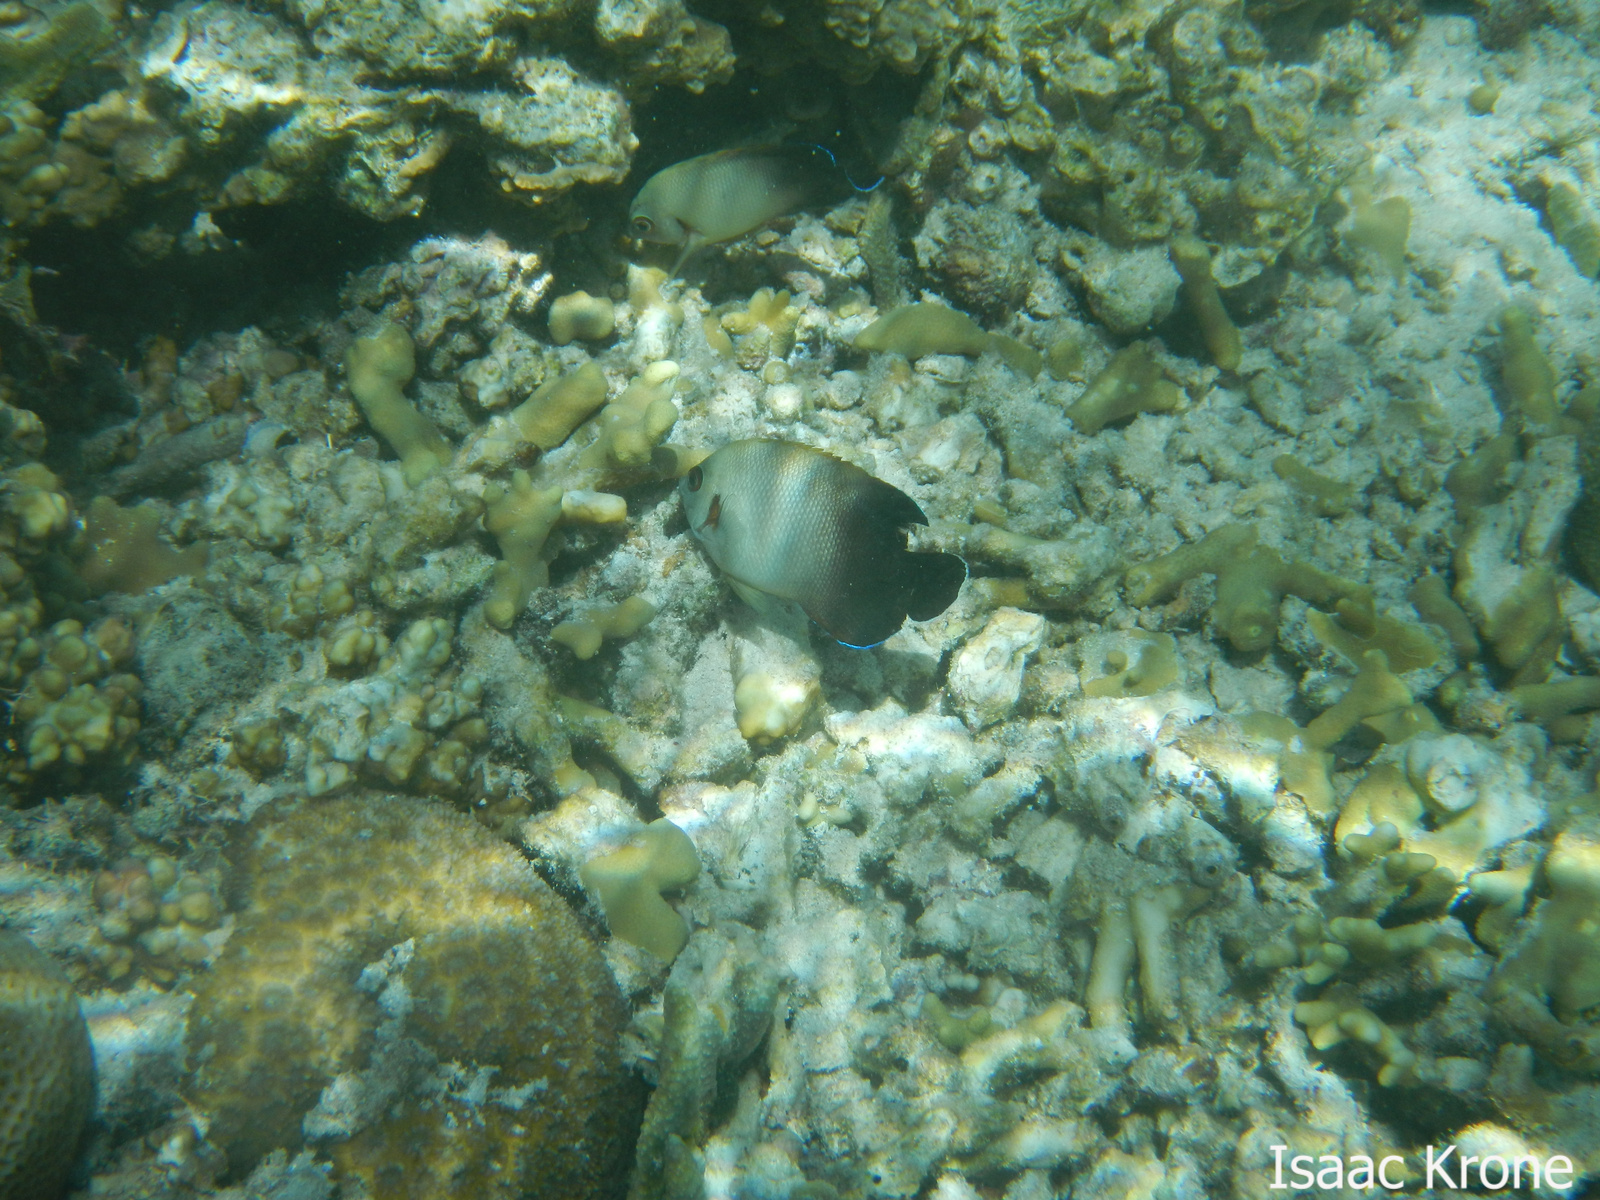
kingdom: Animalia
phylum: Chordata
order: Perciformes
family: Pomacanthidae
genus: Centropyge
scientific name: Centropyge vrolikii
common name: Pearlscale angelfish
